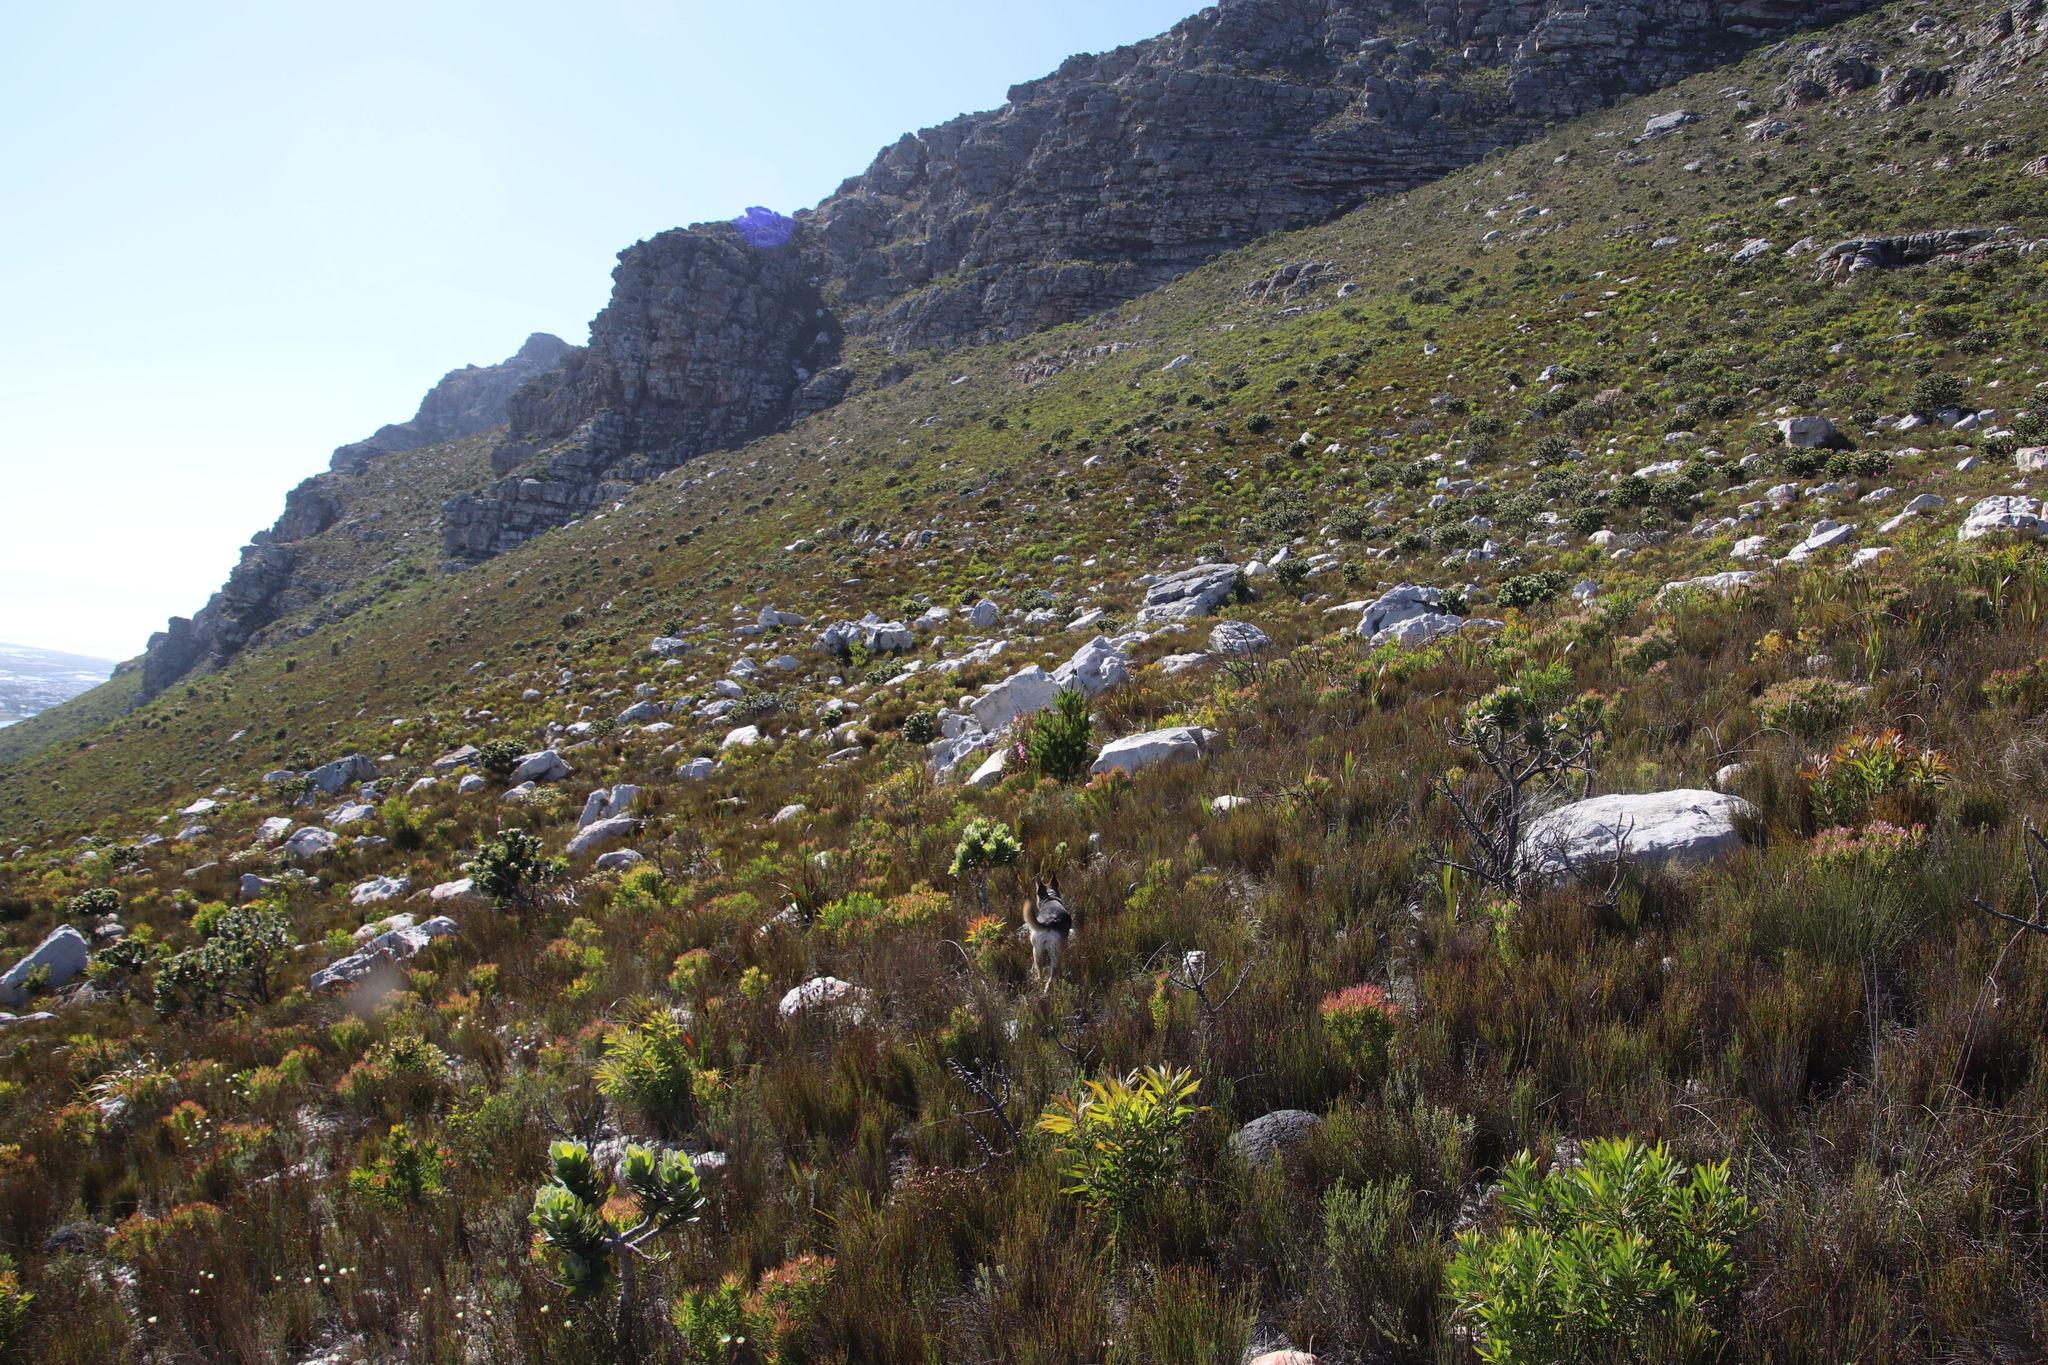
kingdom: Plantae
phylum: Tracheophyta
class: Magnoliopsida
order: Proteales
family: Proteaceae
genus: Protea
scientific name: Protea lepidocarpodendron
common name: Black-bearded protea
